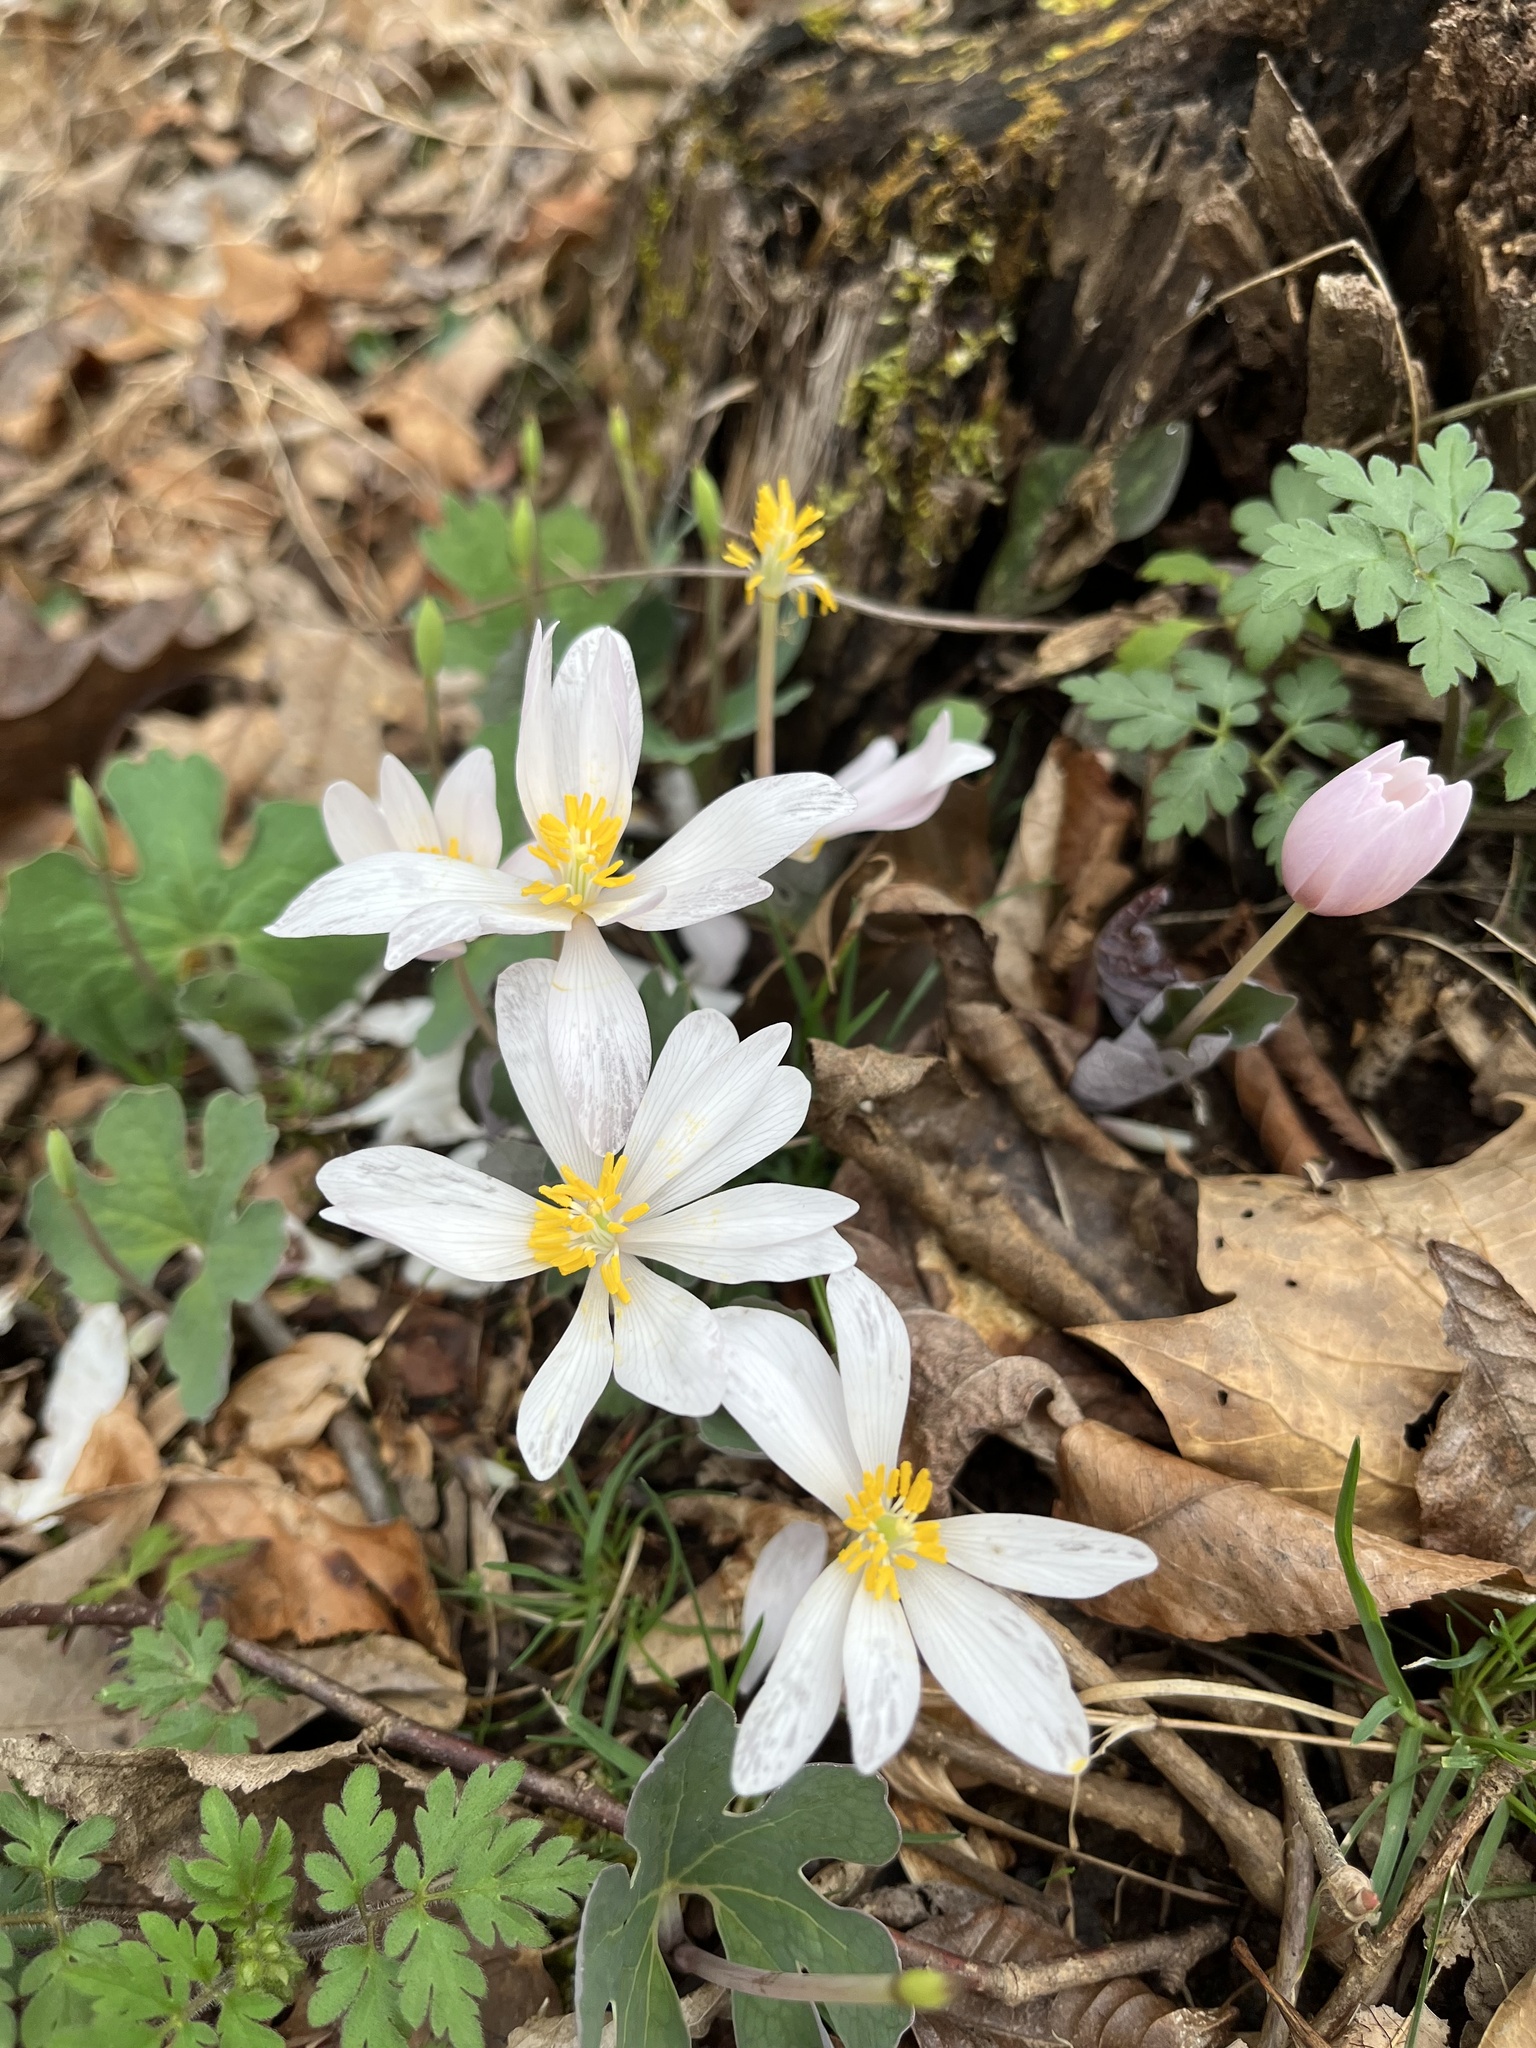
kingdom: Plantae
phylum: Tracheophyta
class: Magnoliopsida
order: Ranunculales
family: Papaveraceae
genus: Sanguinaria
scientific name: Sanguinaria canadensis
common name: Bloodroot
